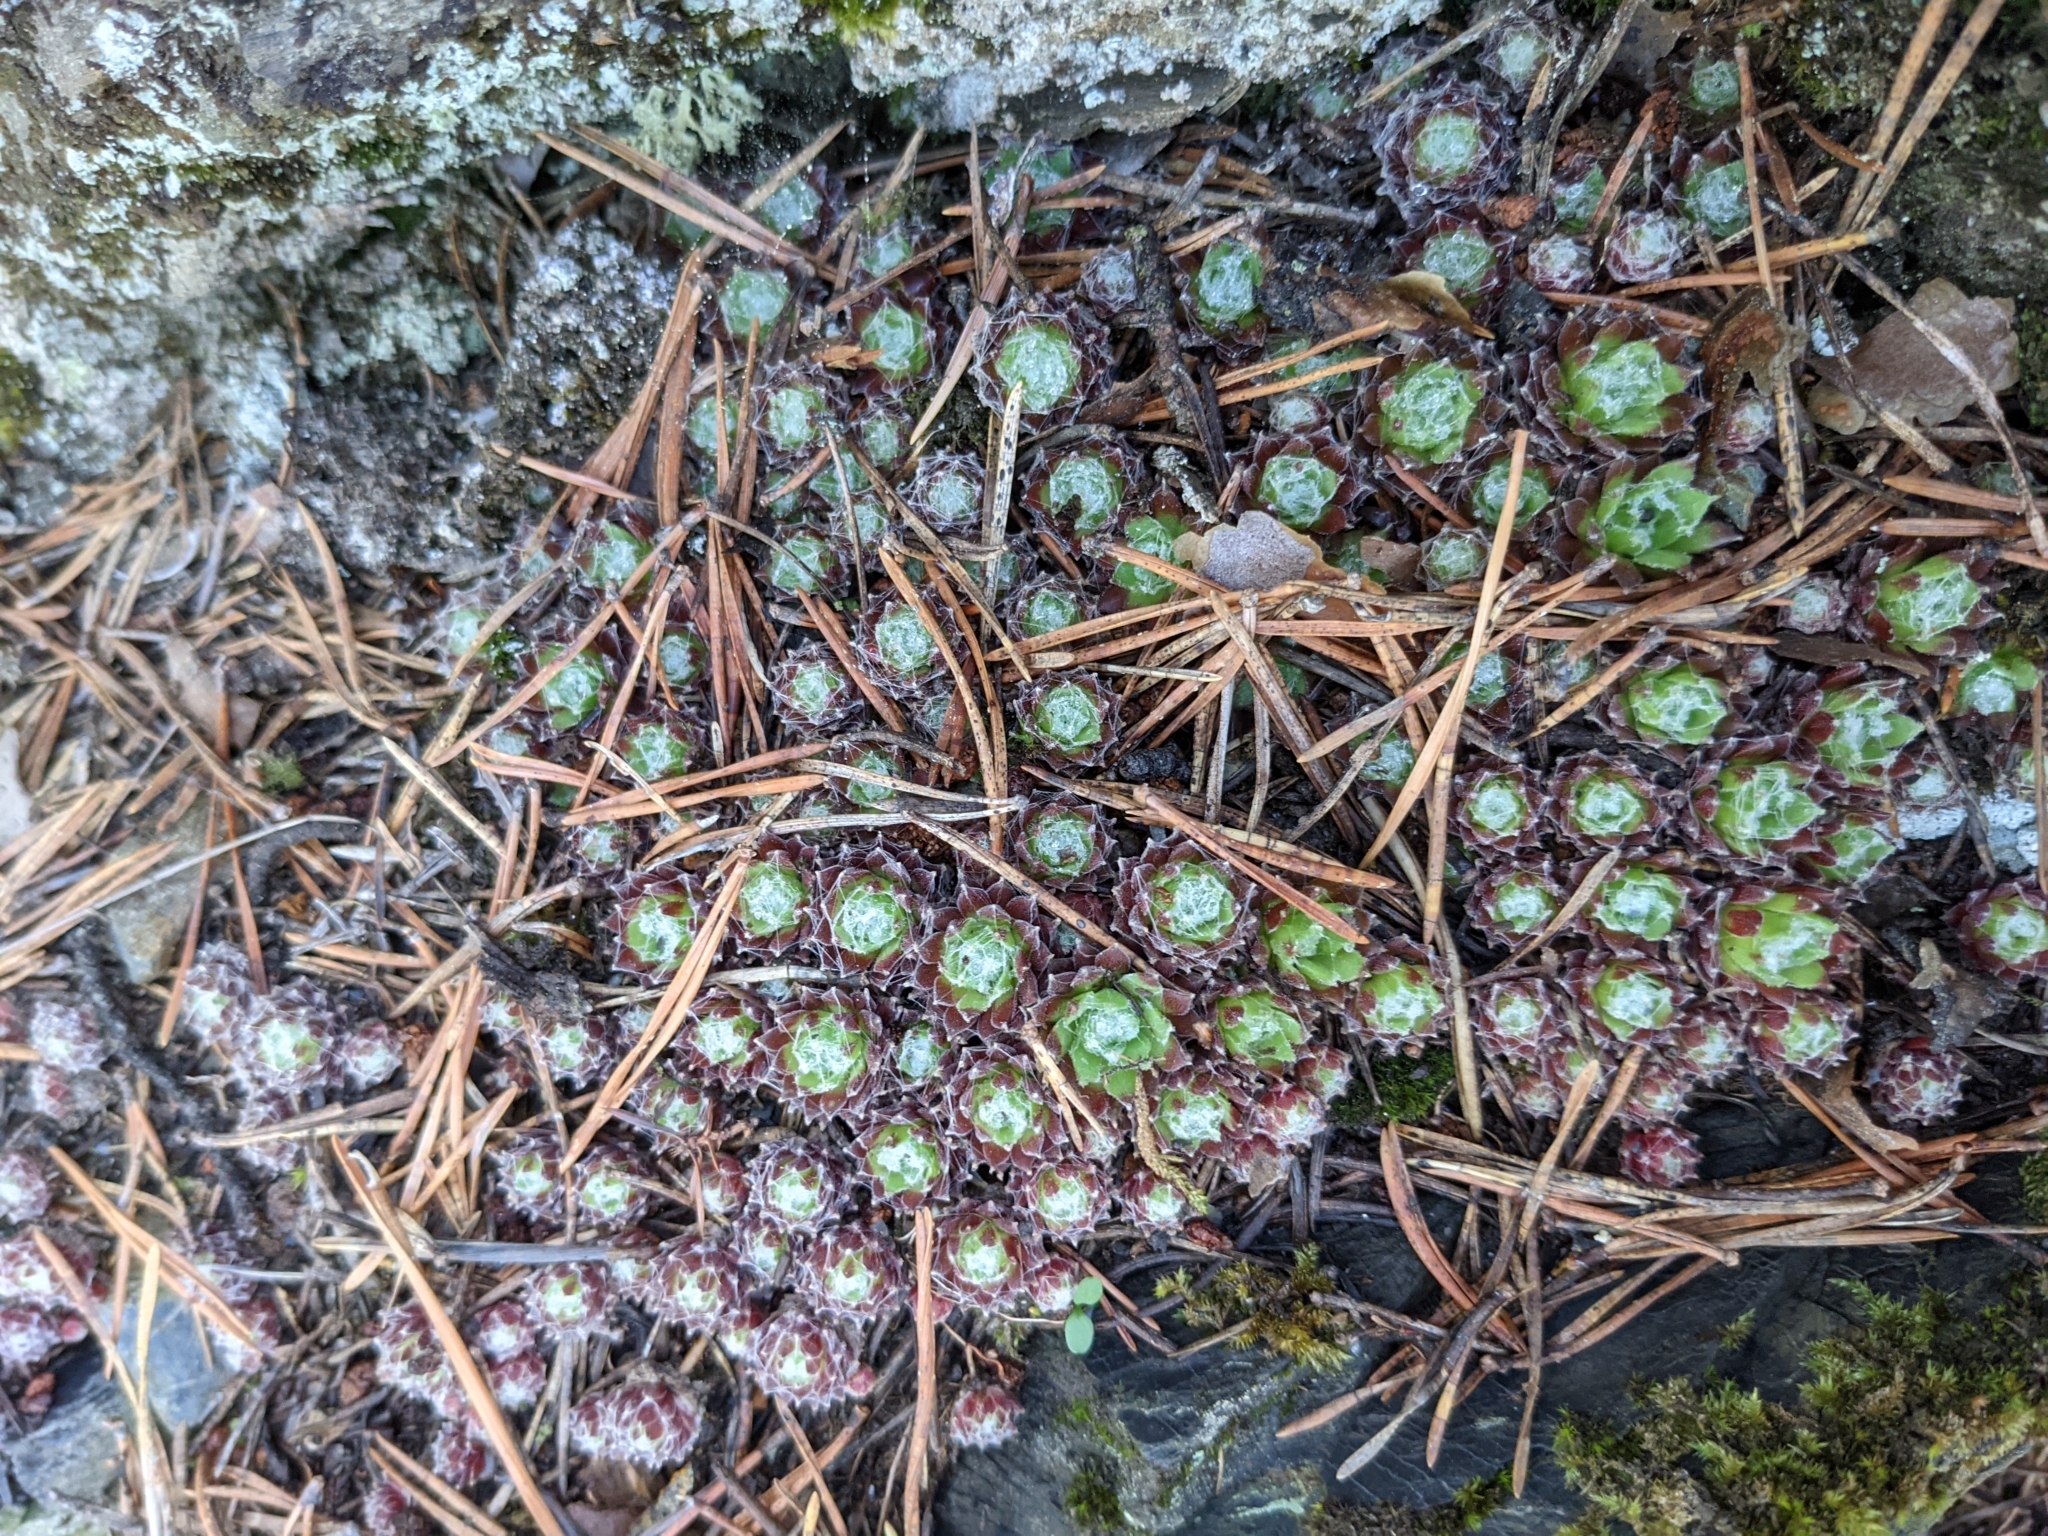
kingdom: Plantae
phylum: Tracheophyta
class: Magnoliopsida
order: Saxifragales
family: Crassulaceae
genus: Sempervivum
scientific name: Sempervivum arachnoideum
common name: Cobweb house-leek
